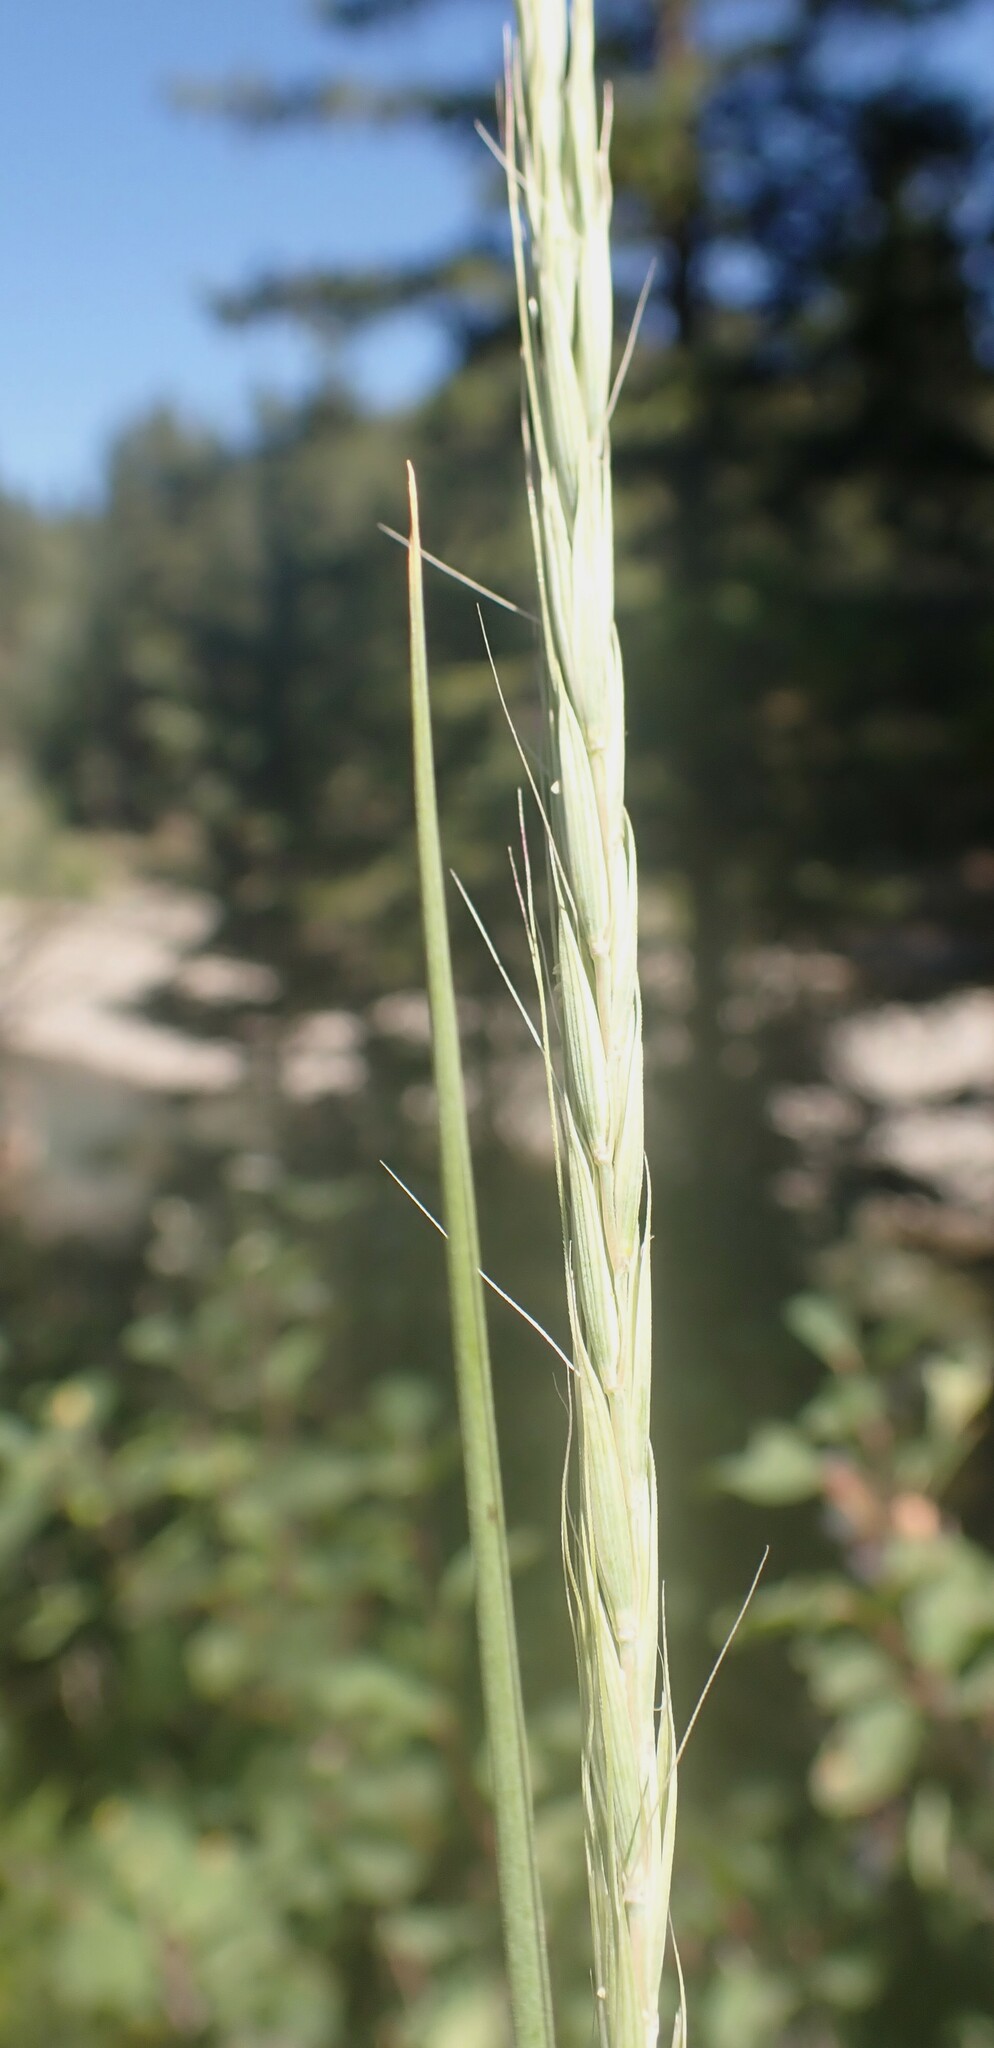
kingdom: Plantae
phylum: Tracheophyta
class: Liliopsida
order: Poales
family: Poaceae
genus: Elymus
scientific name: Elymus violaceus
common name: Arctic wheatgrass
